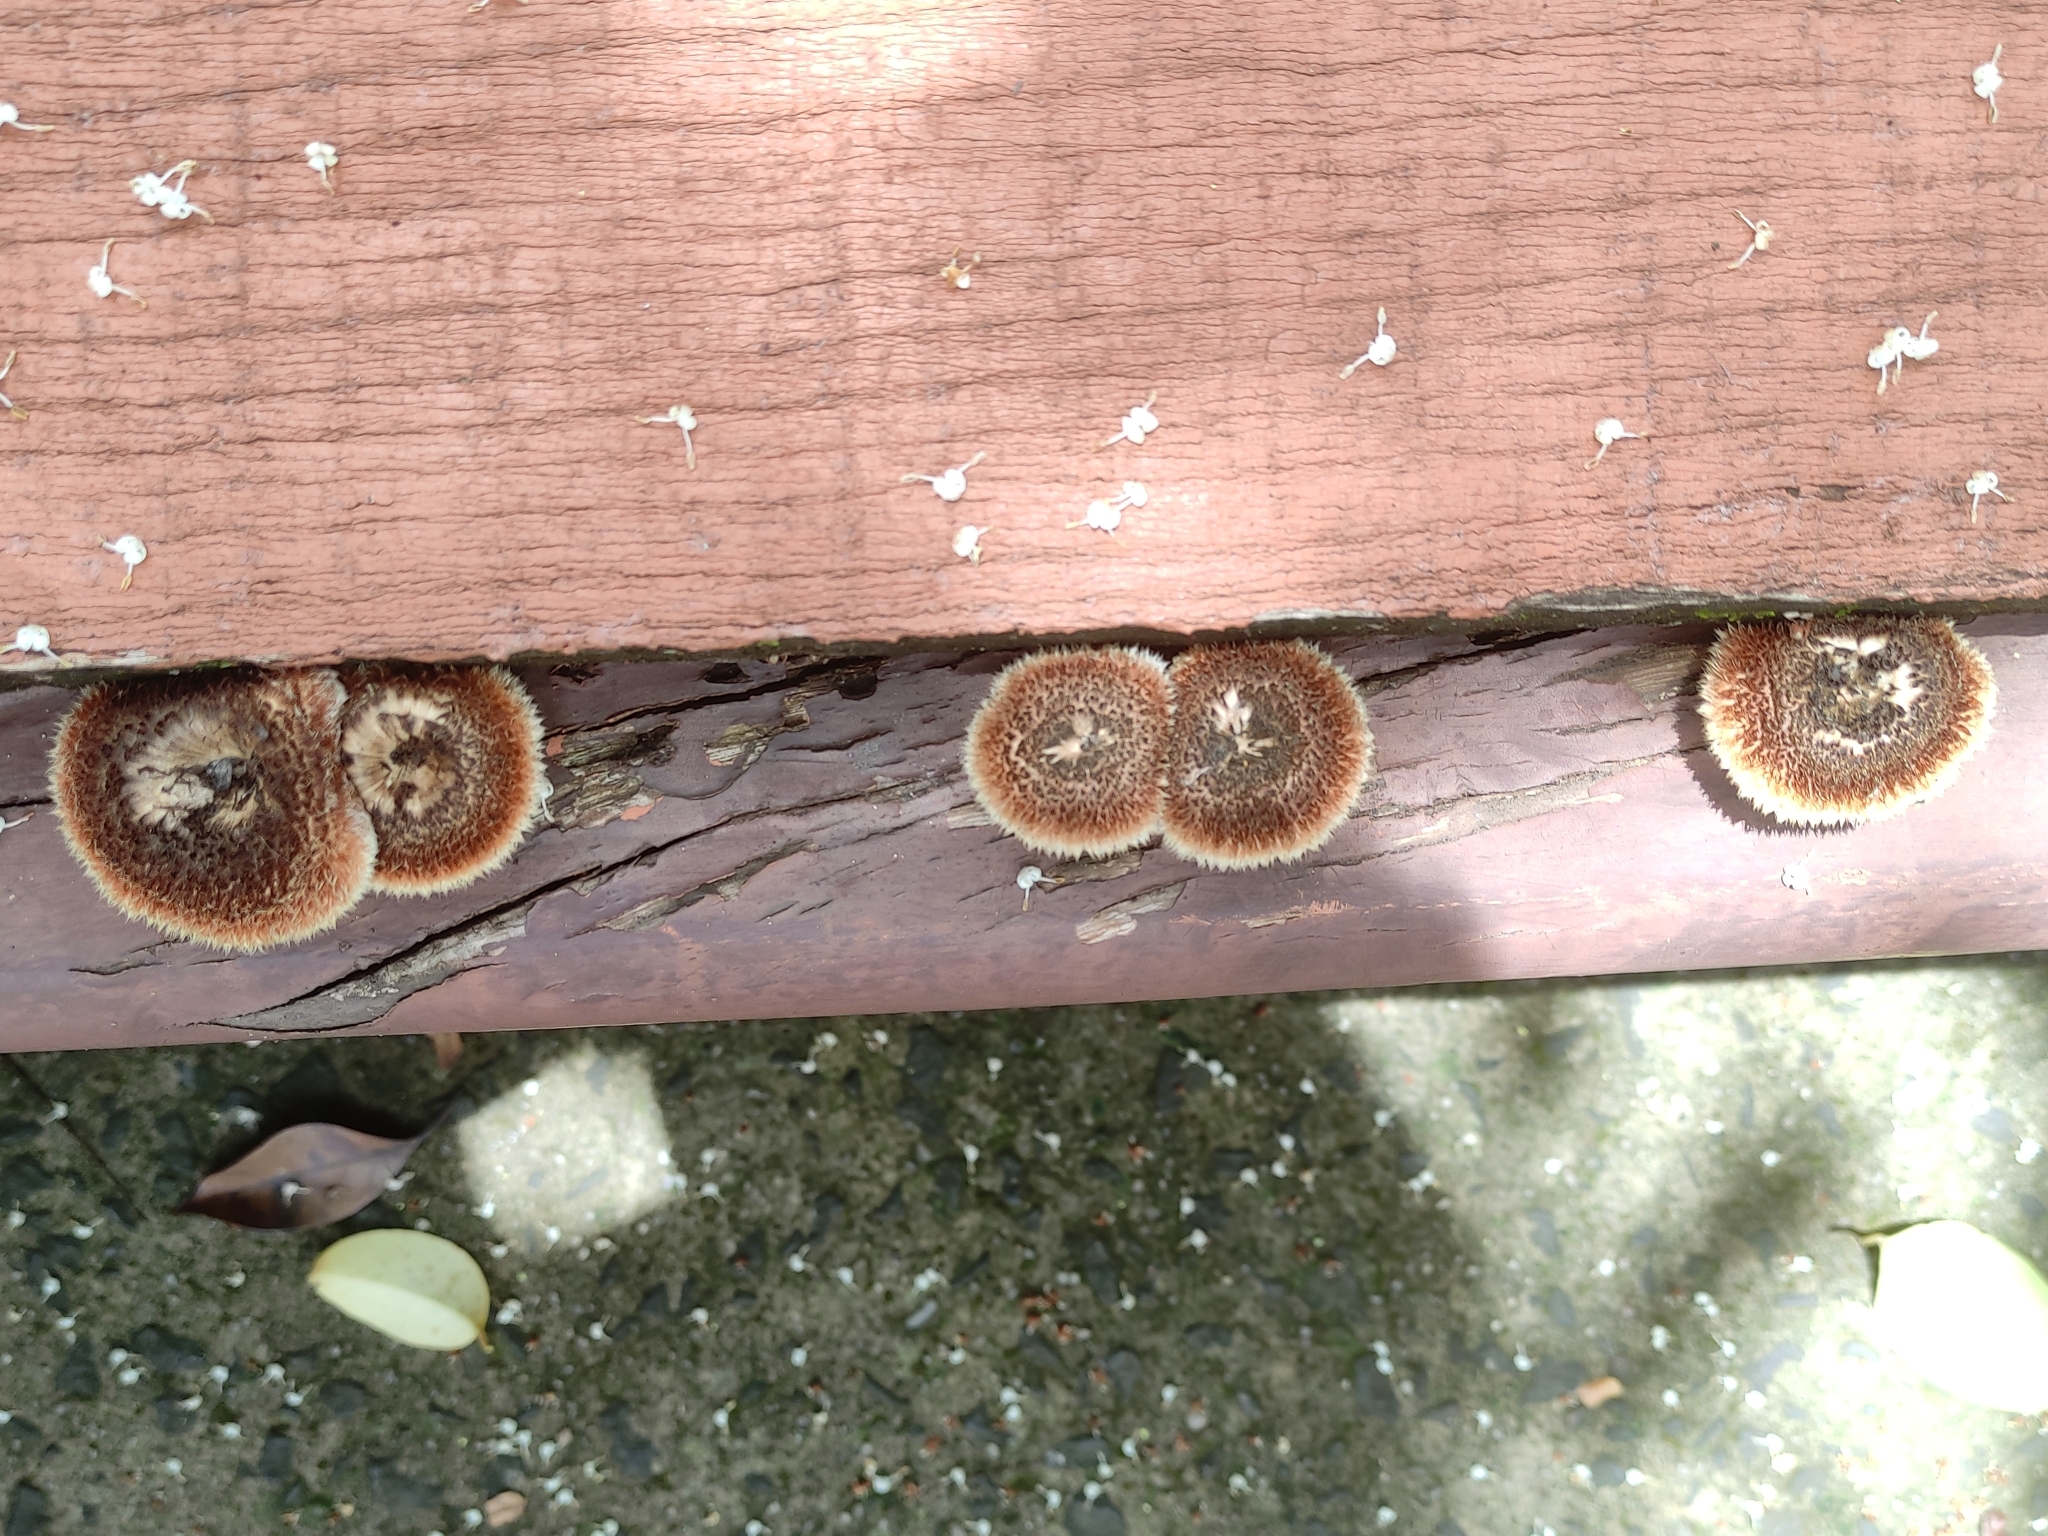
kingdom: Fungi
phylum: Basidiomycota
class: Agaricomycetes
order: Polyporales
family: Polyporaceae
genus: Lentinus
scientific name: Lentinus crinitus
